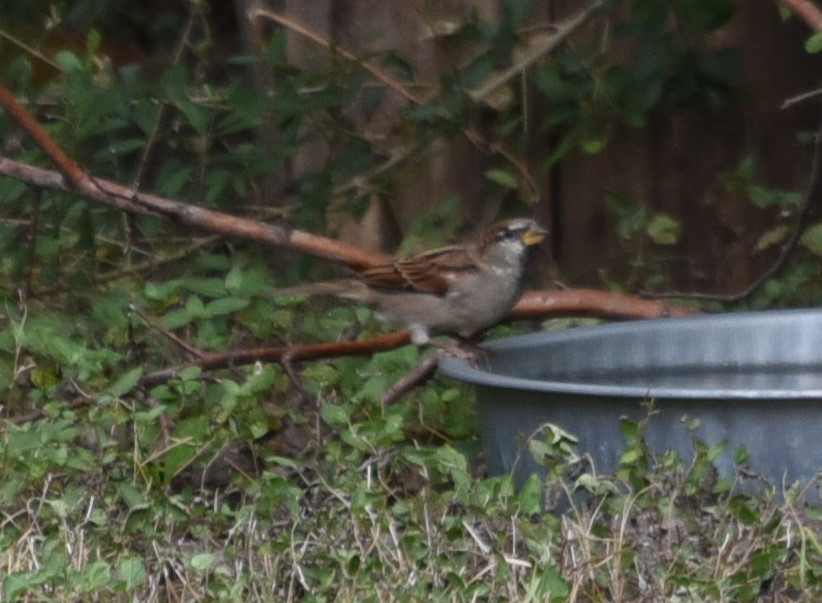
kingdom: Animalia
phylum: Chordata
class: Aves
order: Passeriformes
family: Passeridae
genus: Passer
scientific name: Passer domesticus
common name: House sparrow
